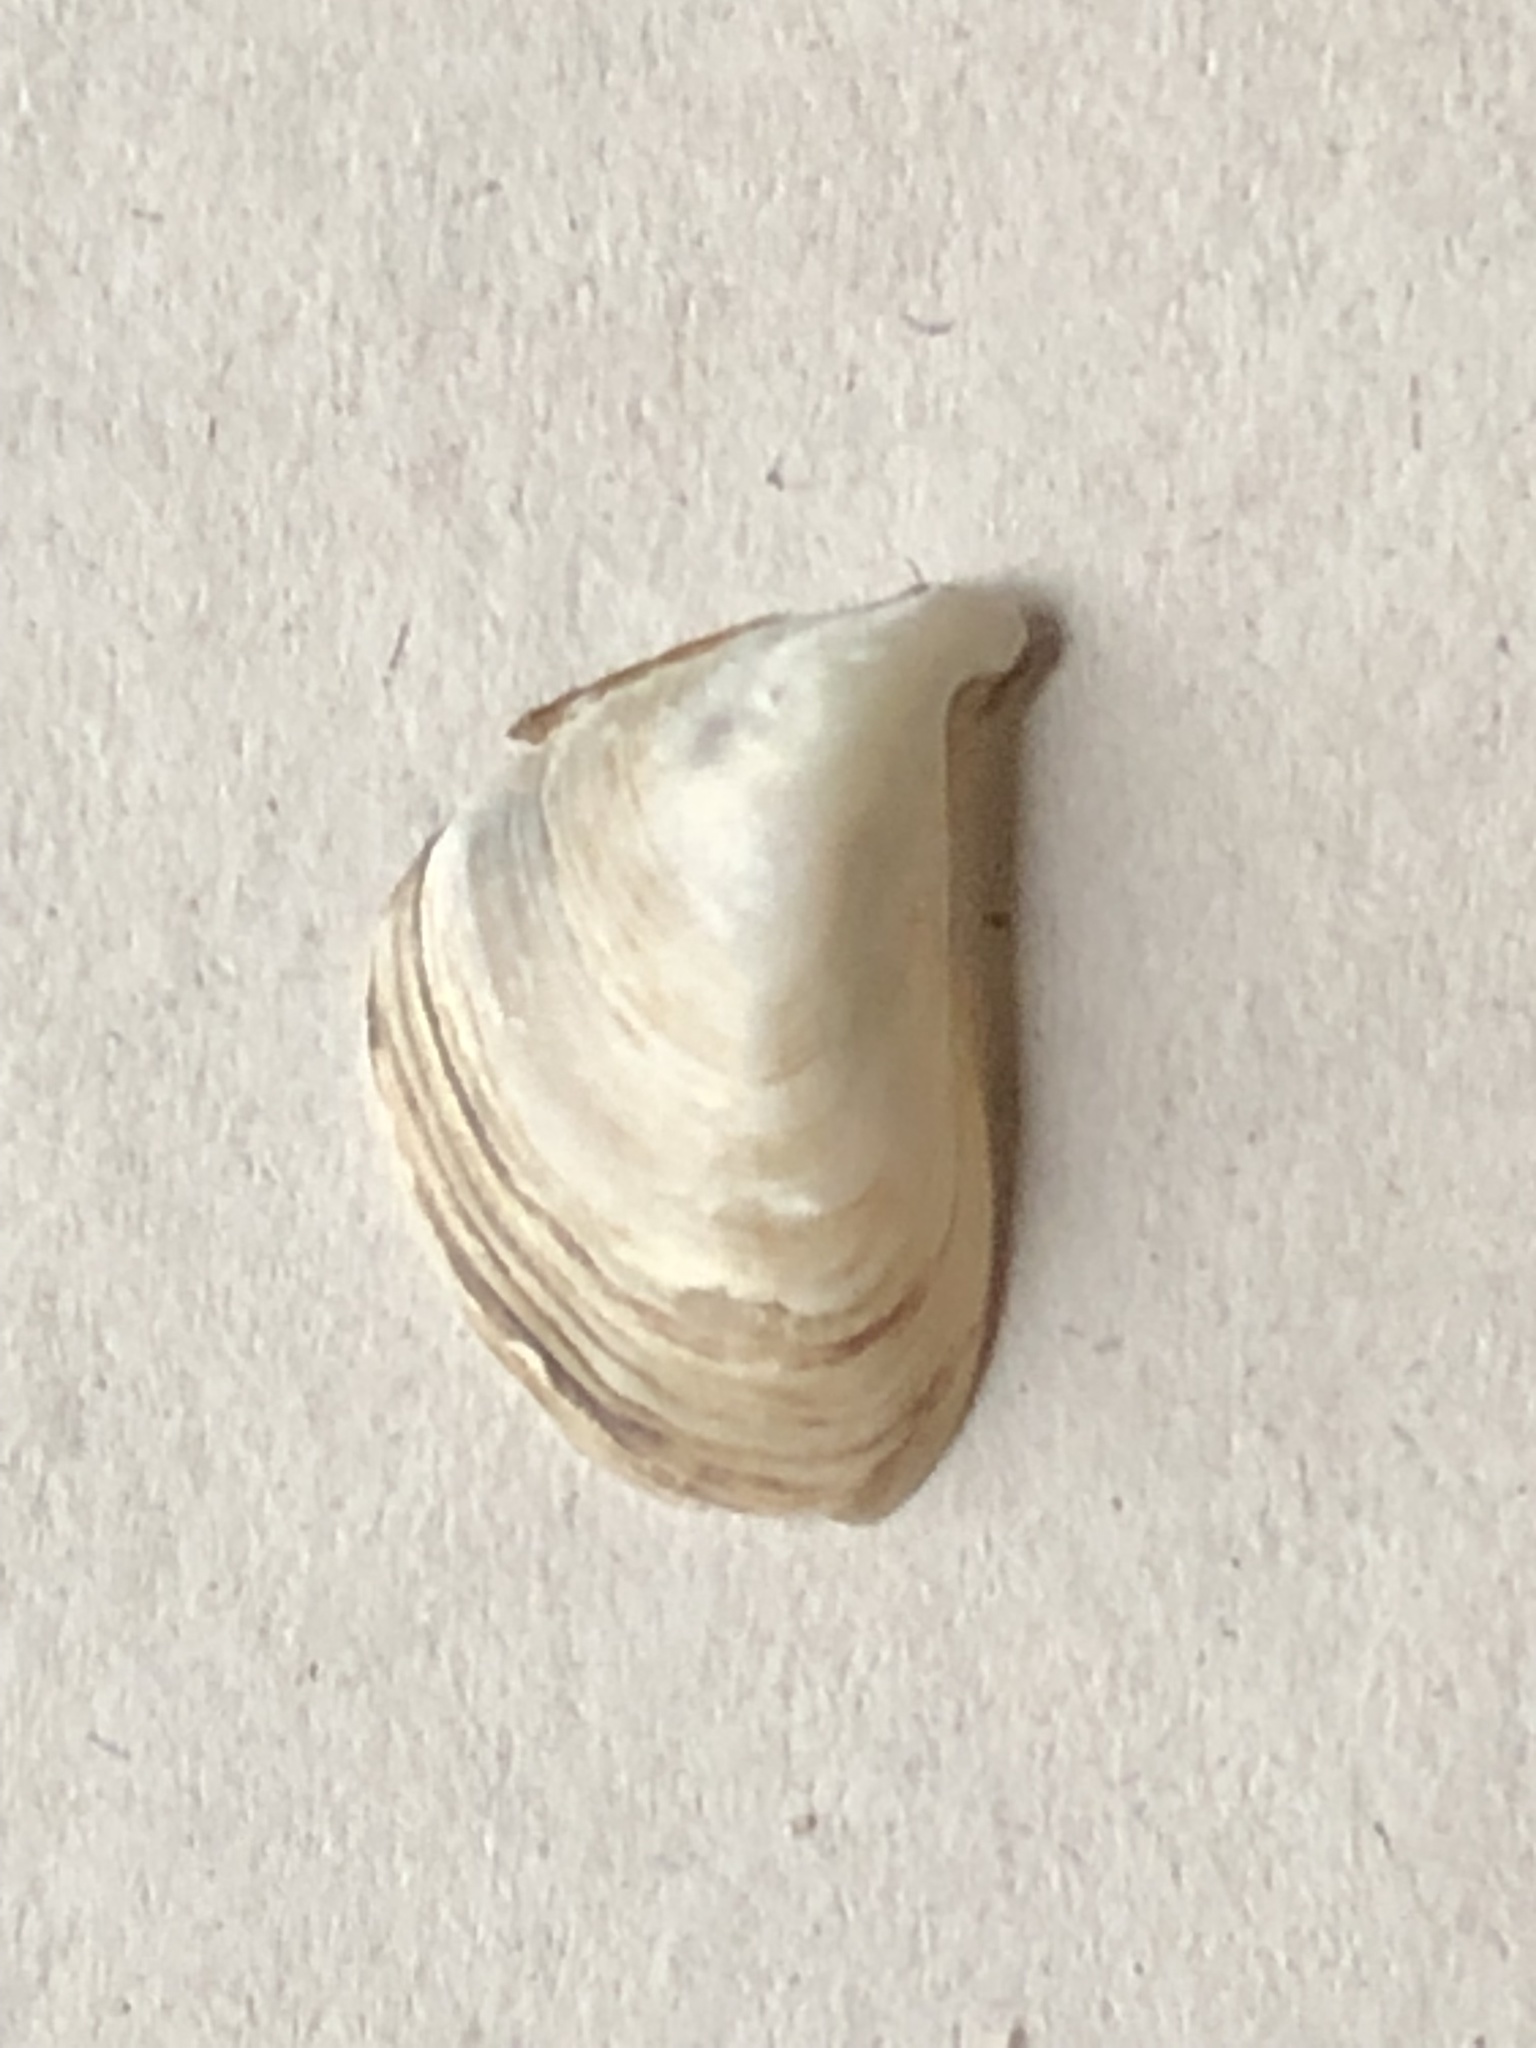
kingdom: Animalia
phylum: Mollusca
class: Bivalvia
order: Myida
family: Dreissenidae
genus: Dreissena
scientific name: Dreissena bugensis
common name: Quagga mussel
